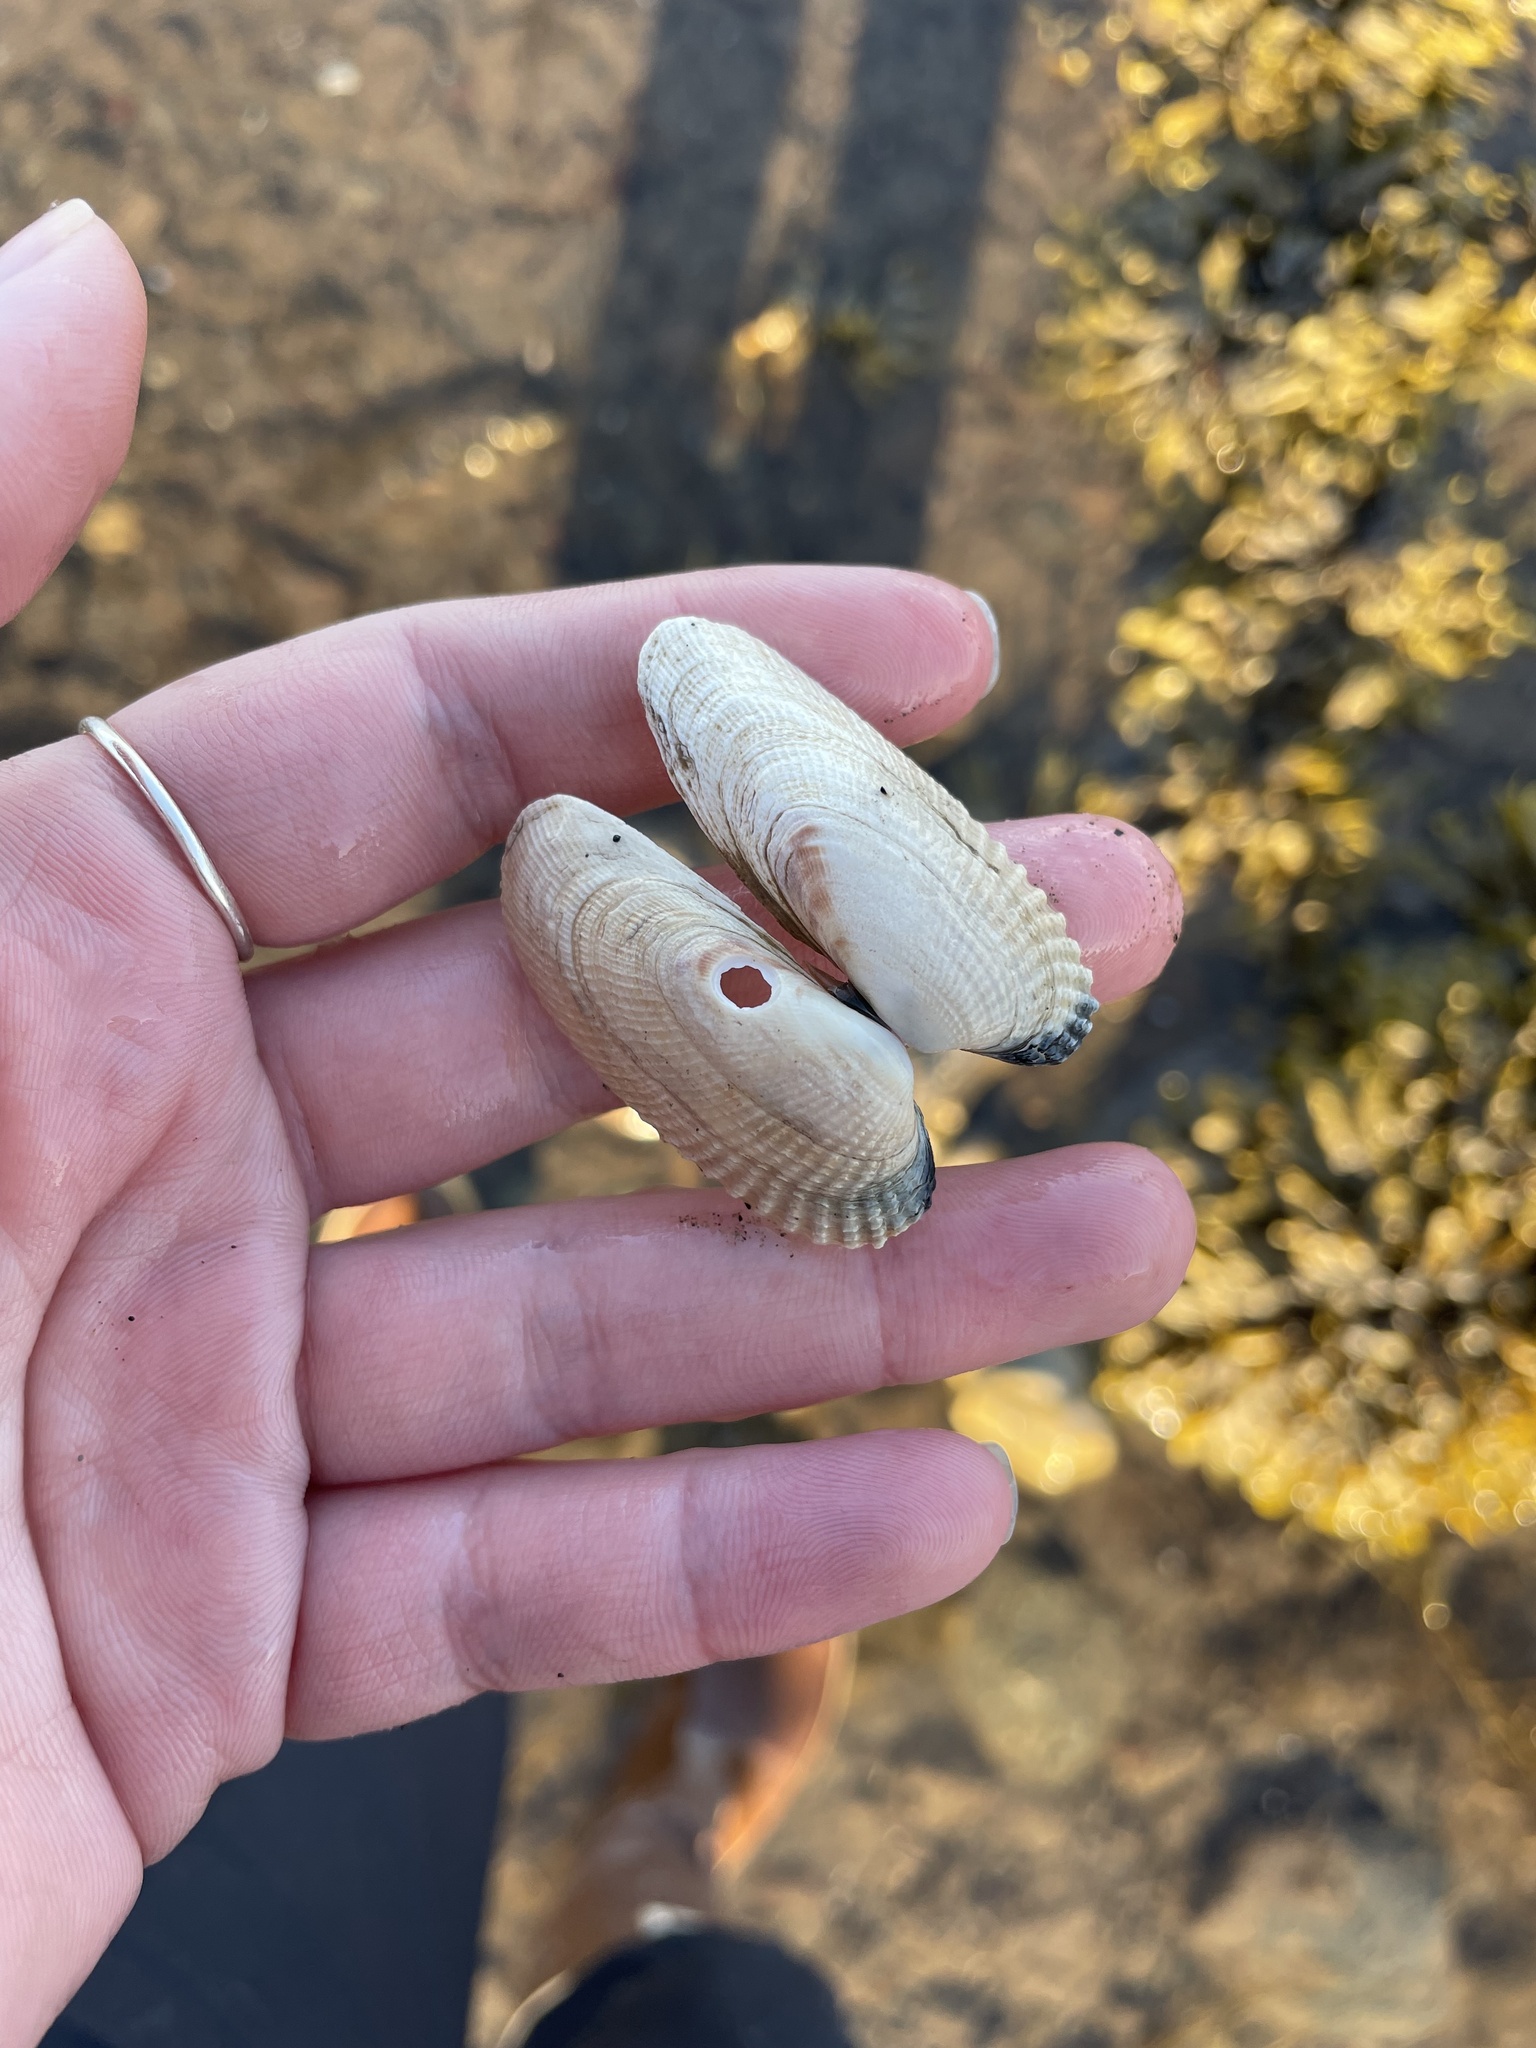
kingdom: Animalia
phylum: Mollusca
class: Bivalvia
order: Venerida
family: Veneridae
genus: Petricolaria
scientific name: Petricolaria pholadiformis
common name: American piddock
